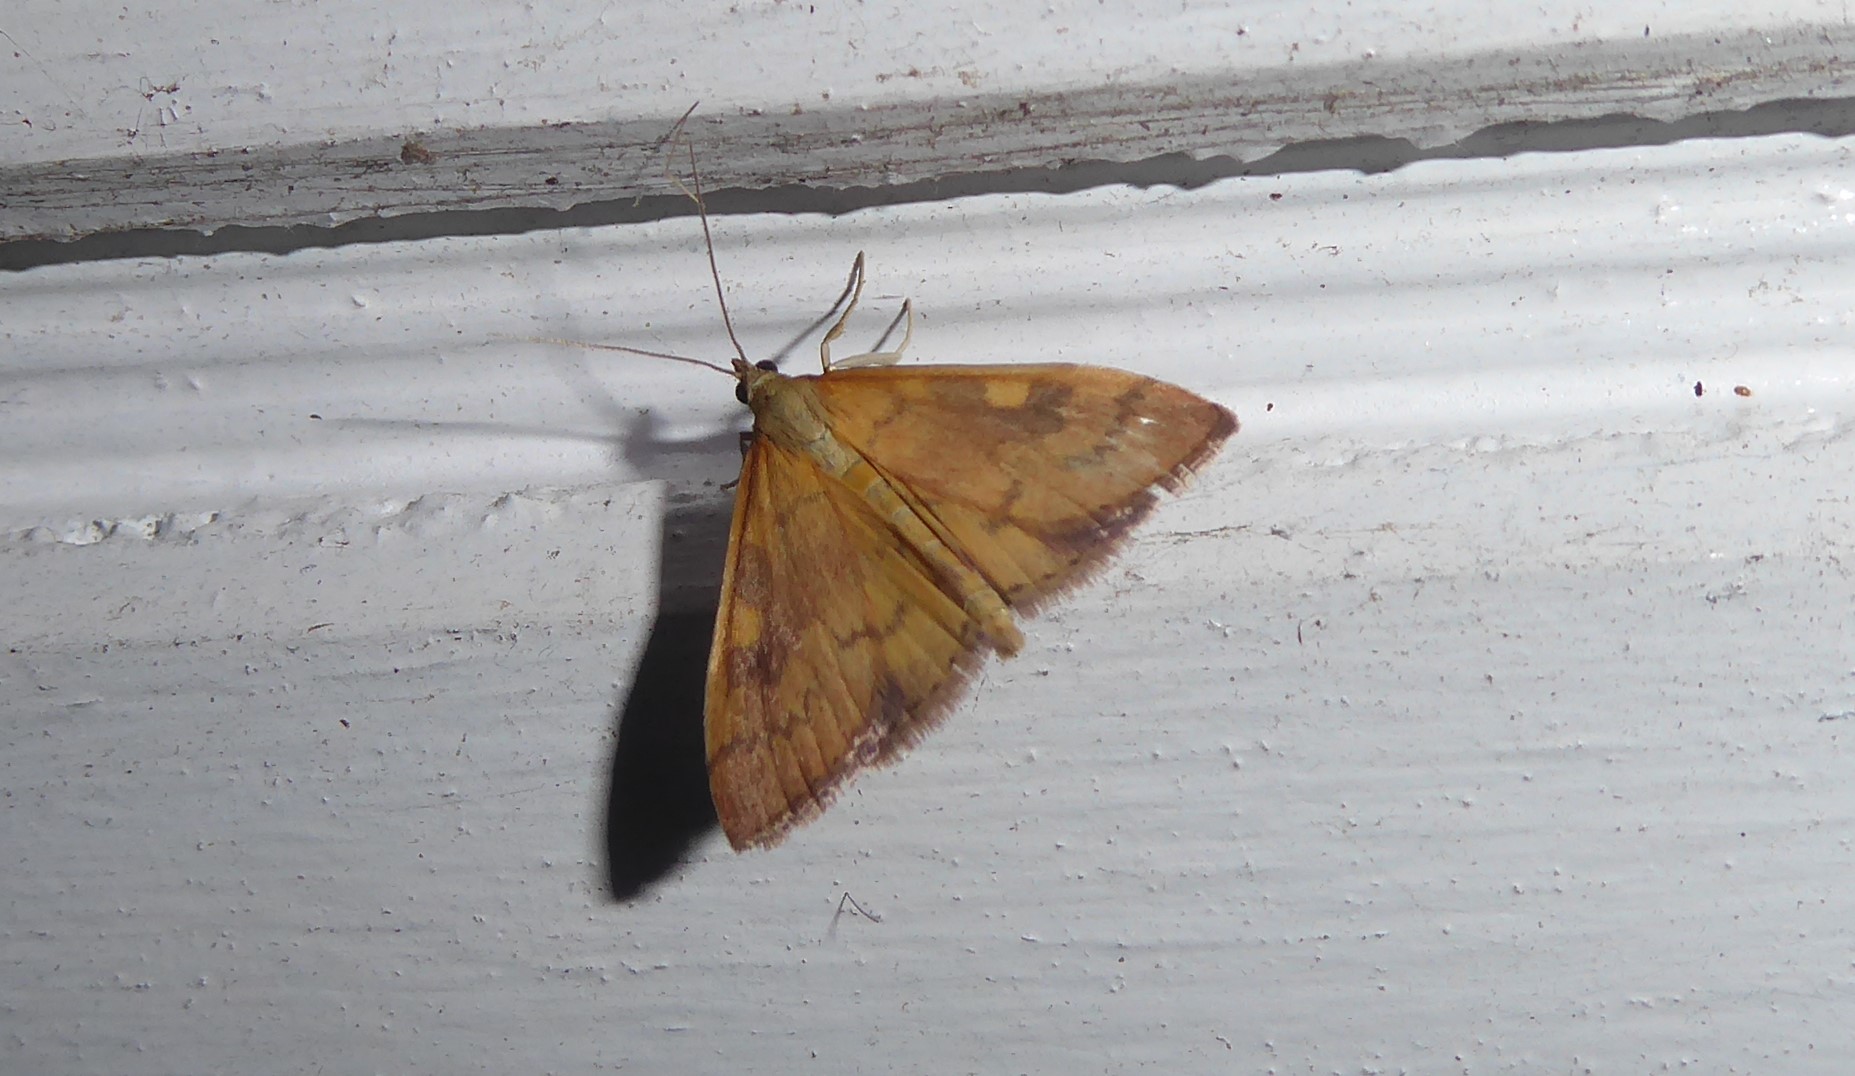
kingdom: Animalia
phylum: Arthropoda
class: Insecta
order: Lepidoptera
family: Crambidae
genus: Udea
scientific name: Udea Mnesictena flavidalis
